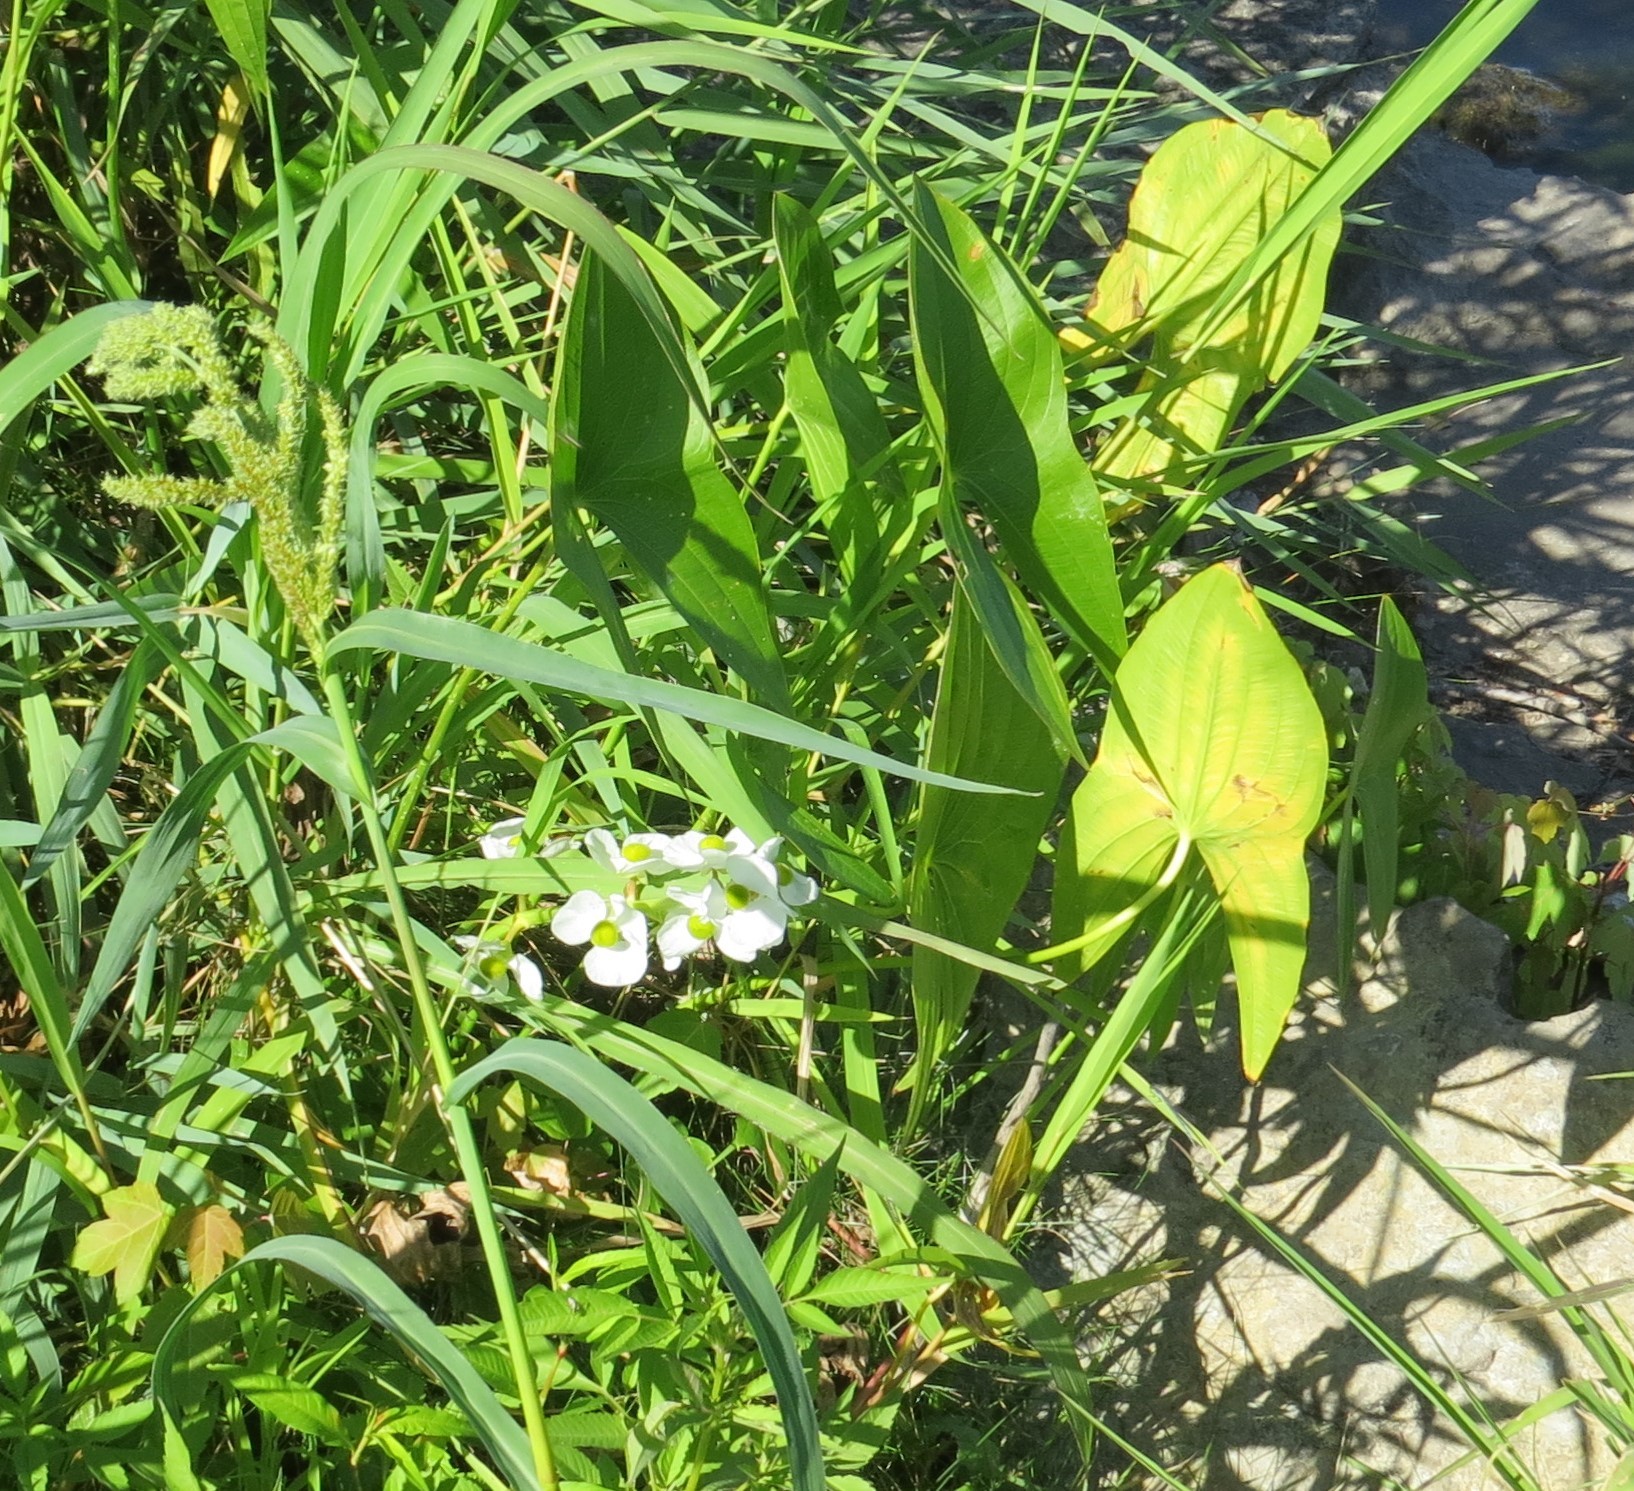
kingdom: Plantae
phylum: Tracheophyta
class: Liliopsida
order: Alismatales
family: Alismataceae
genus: Sagittaria
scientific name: Sagittaria latifolia
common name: Duck-potato
